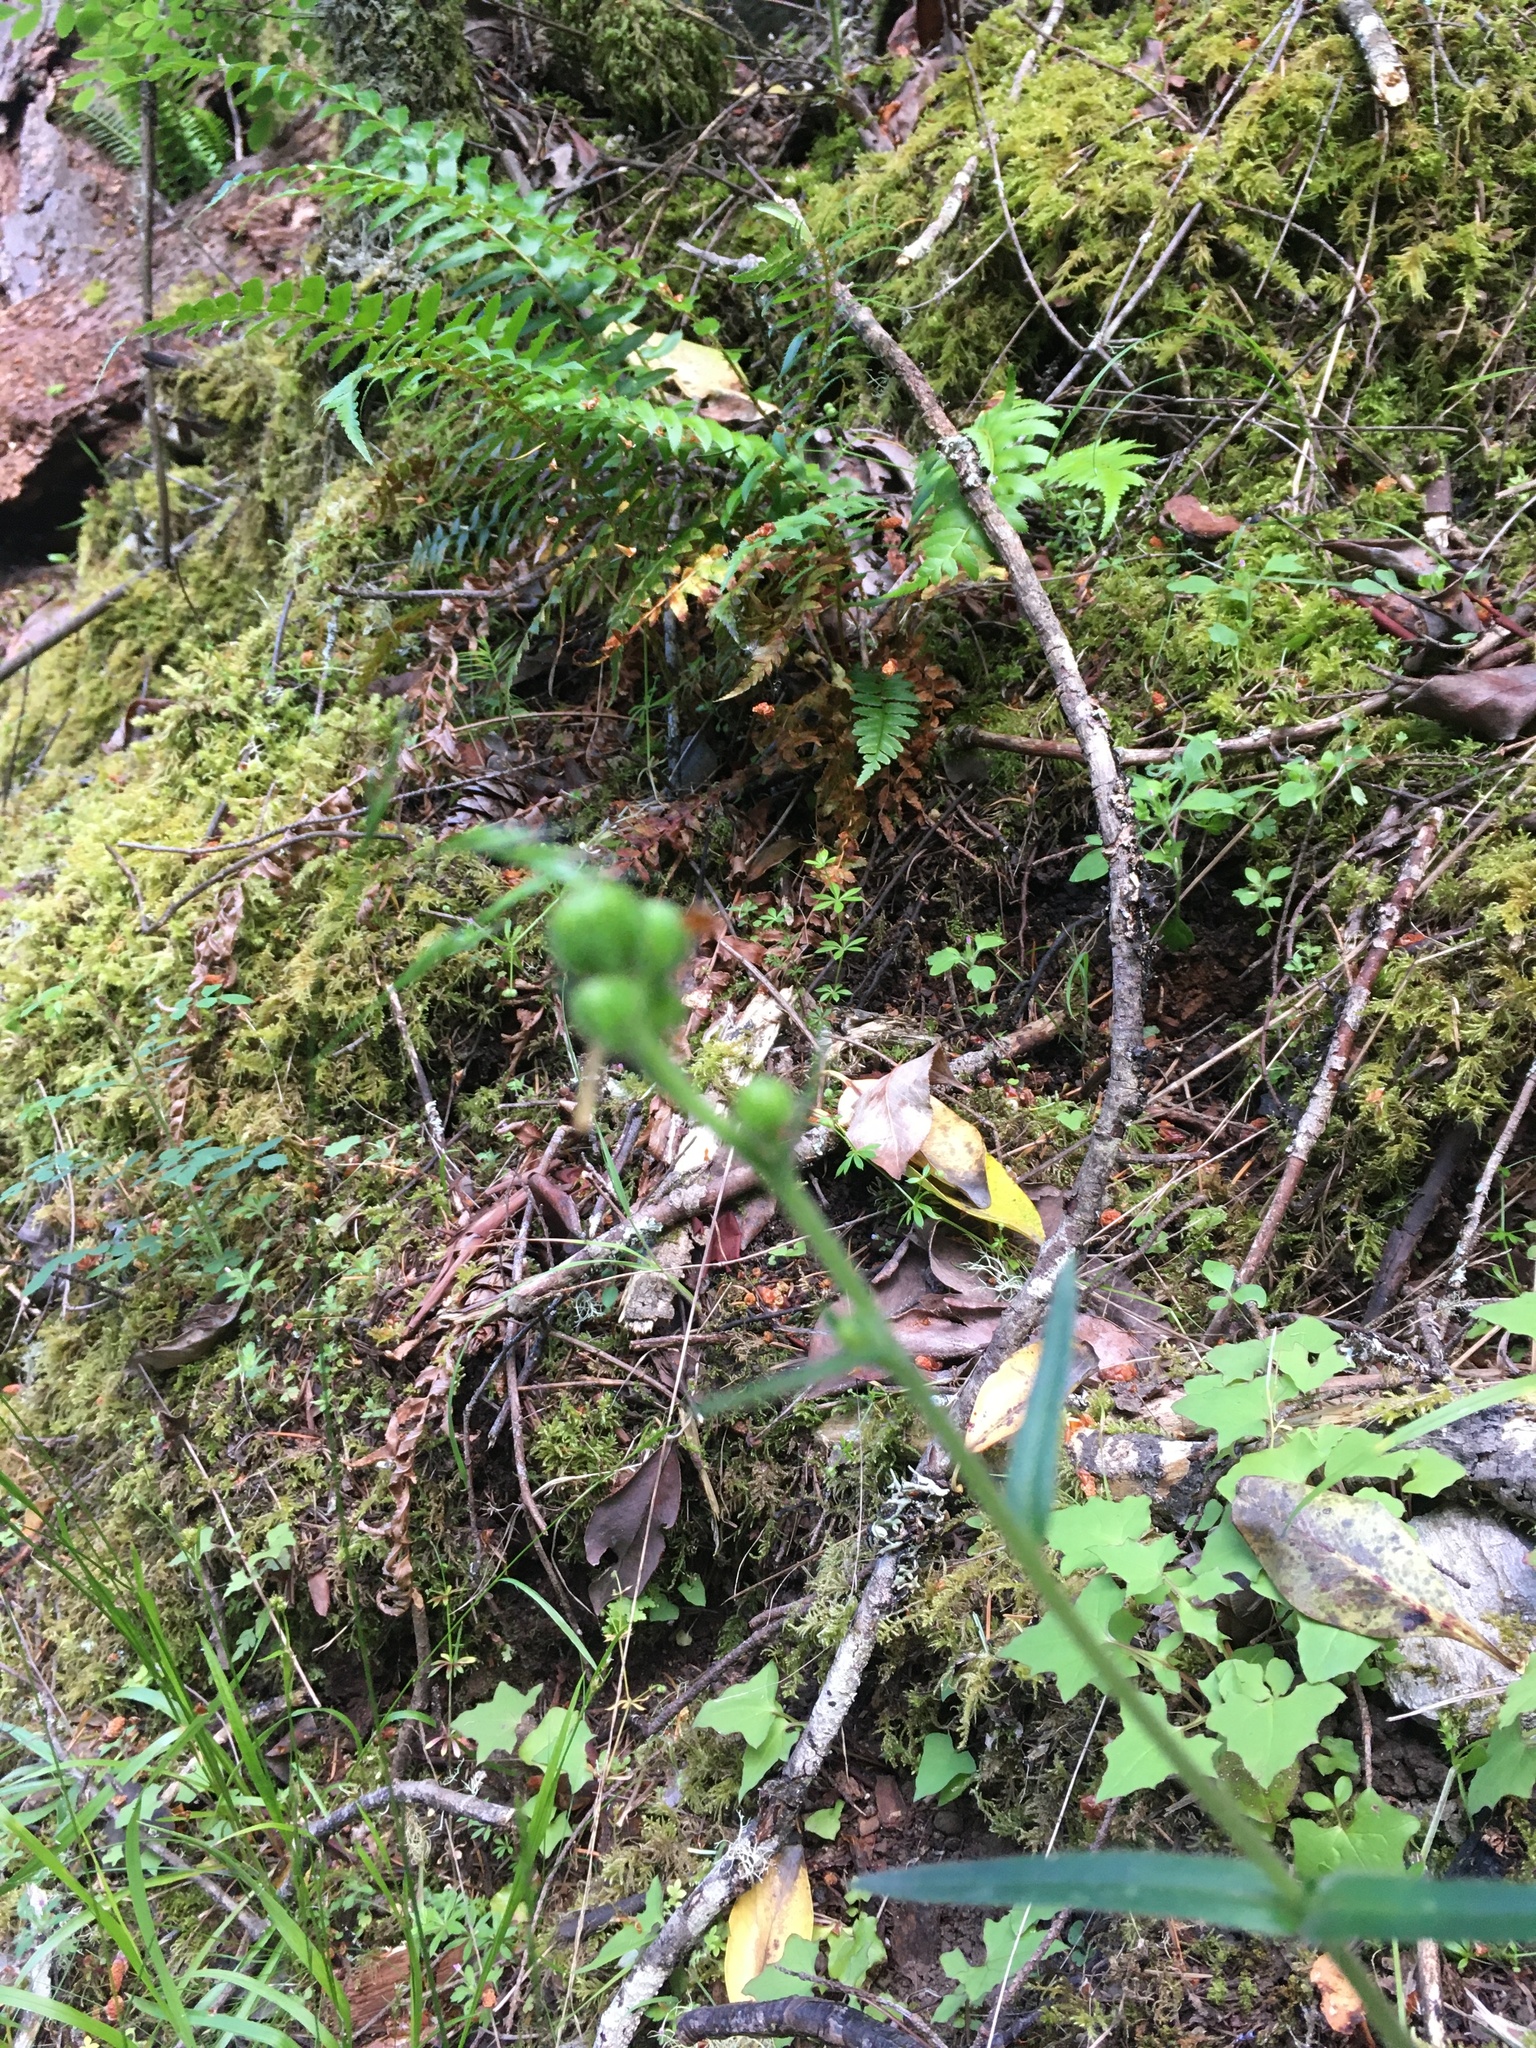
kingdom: Plantae
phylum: Tracheophyta
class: Magnoliopsida
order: Asterales
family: Asteraceae
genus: Anisocarpus
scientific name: Anisocarpus madioides
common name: Woodland madia
